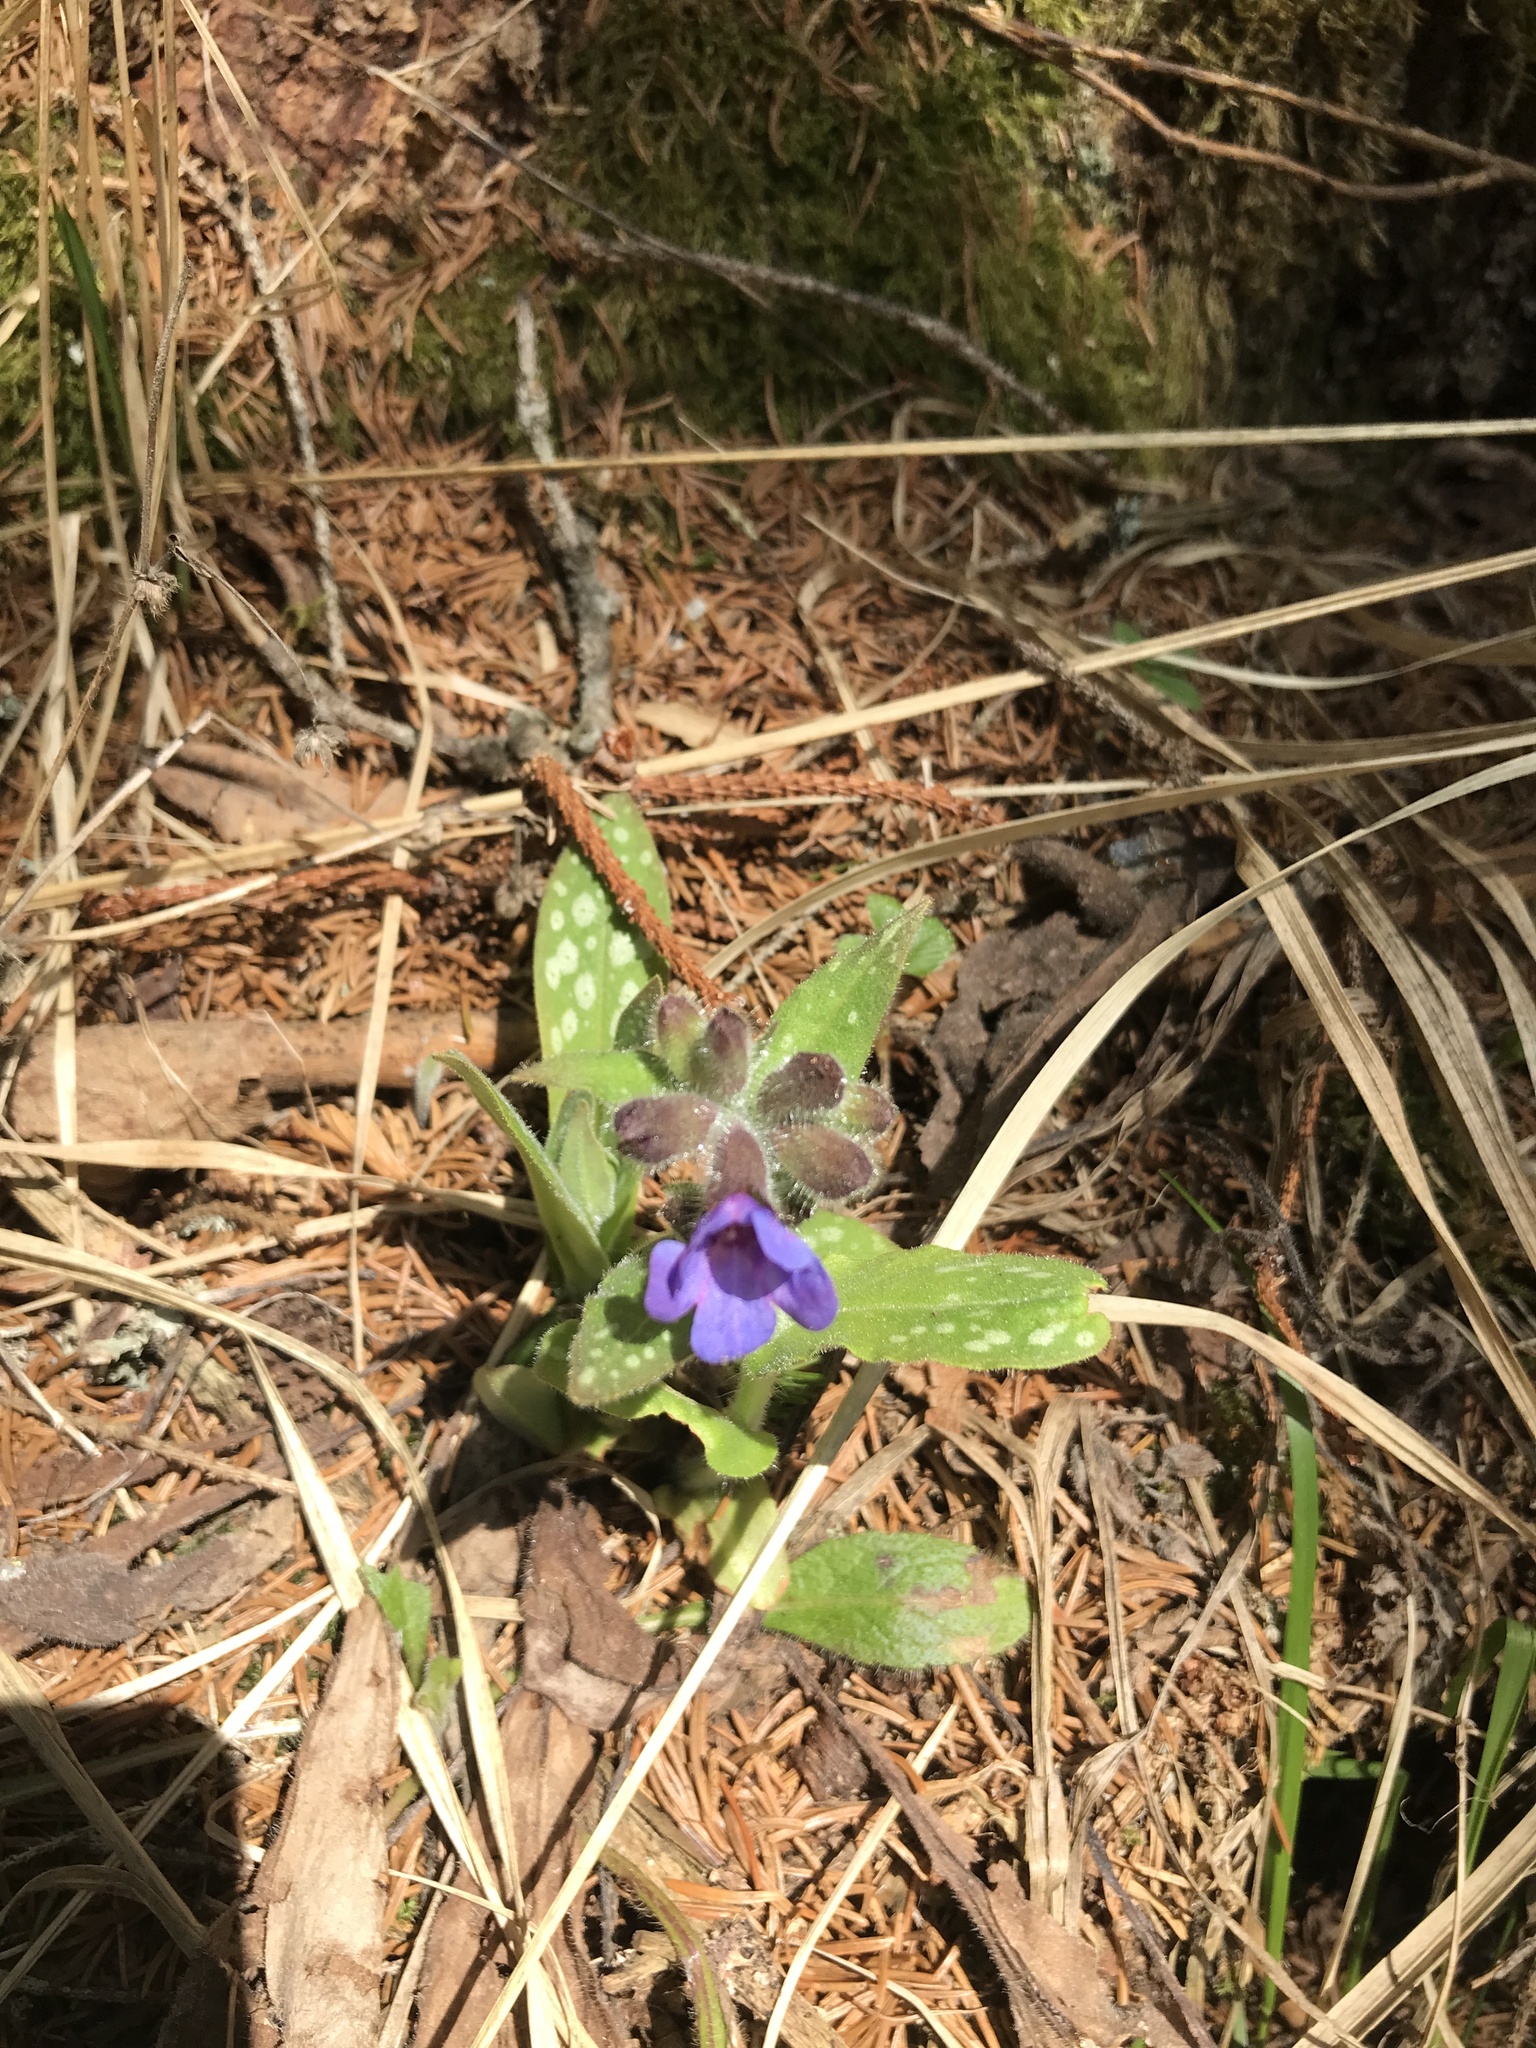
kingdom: Plantae
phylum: Tracheophyta
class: Magnoliopsida
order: Boraginales
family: Boraginaceae
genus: Pulmonaria
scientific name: Pulmonaria officinalis
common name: Lungwort
